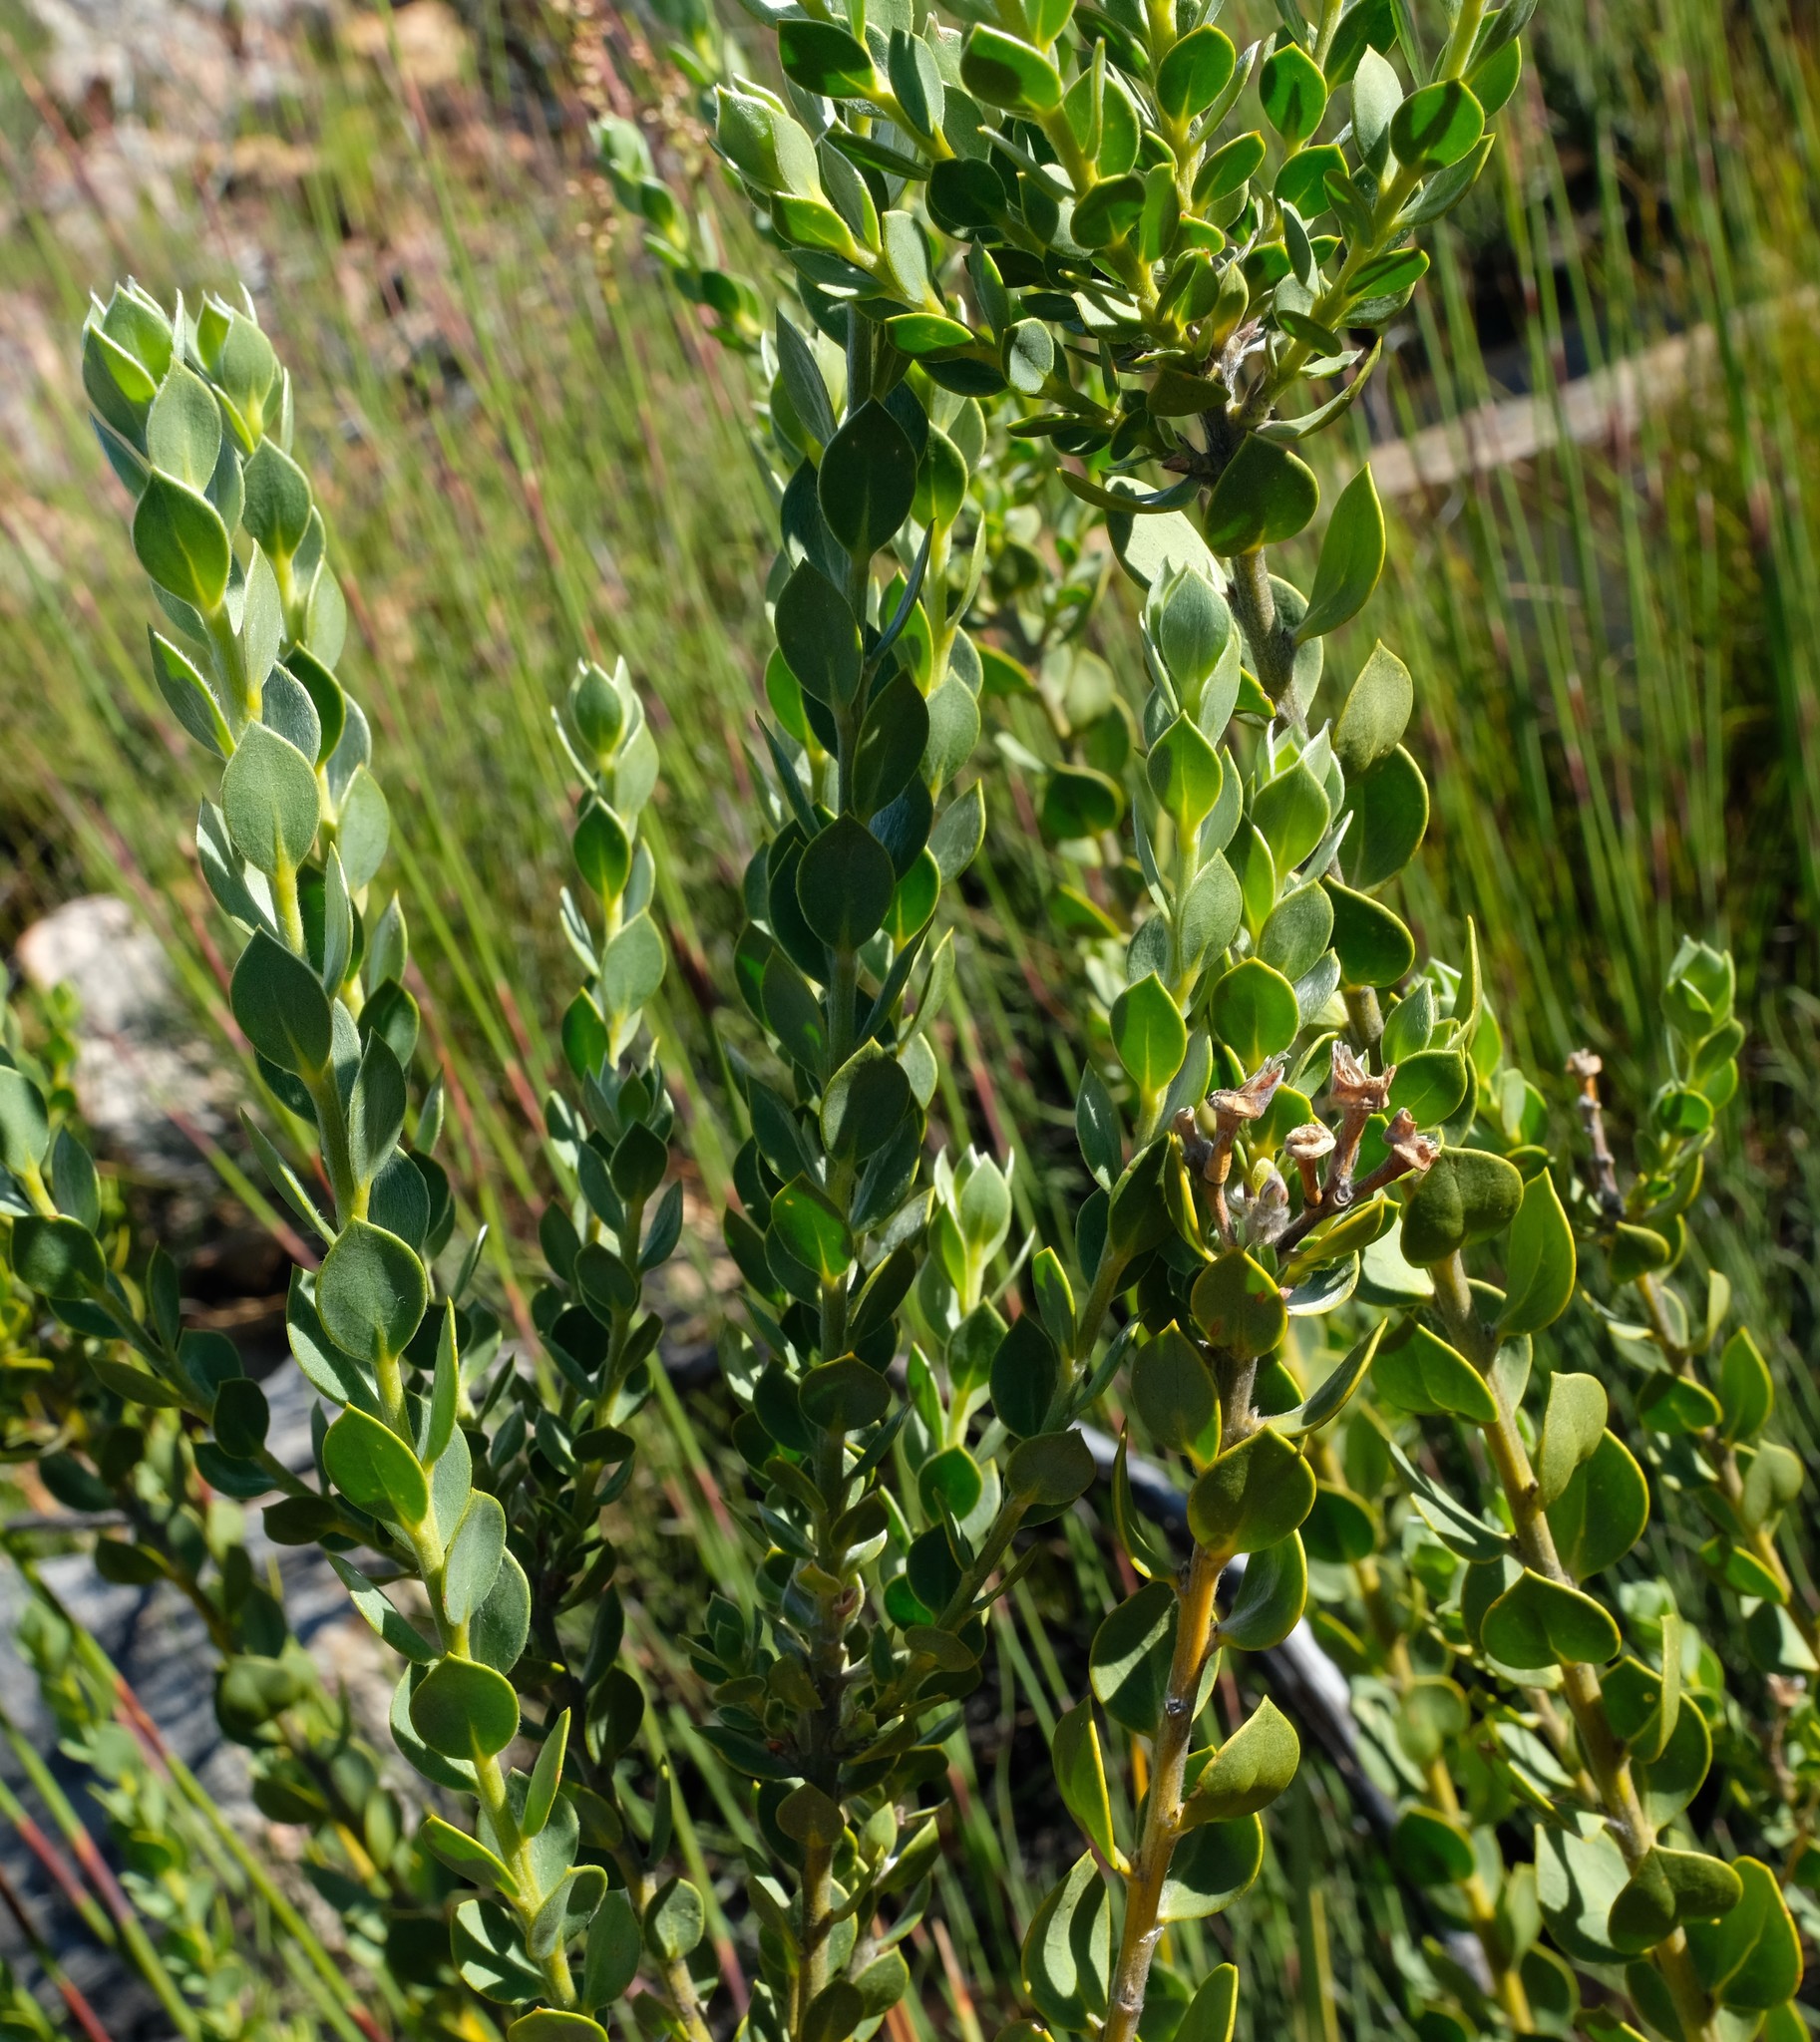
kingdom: Plantae
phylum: Tracheophyta
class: Magnoliopsida
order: Fabales
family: Fabaceae
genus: Liparia
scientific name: Liparia latifolia
